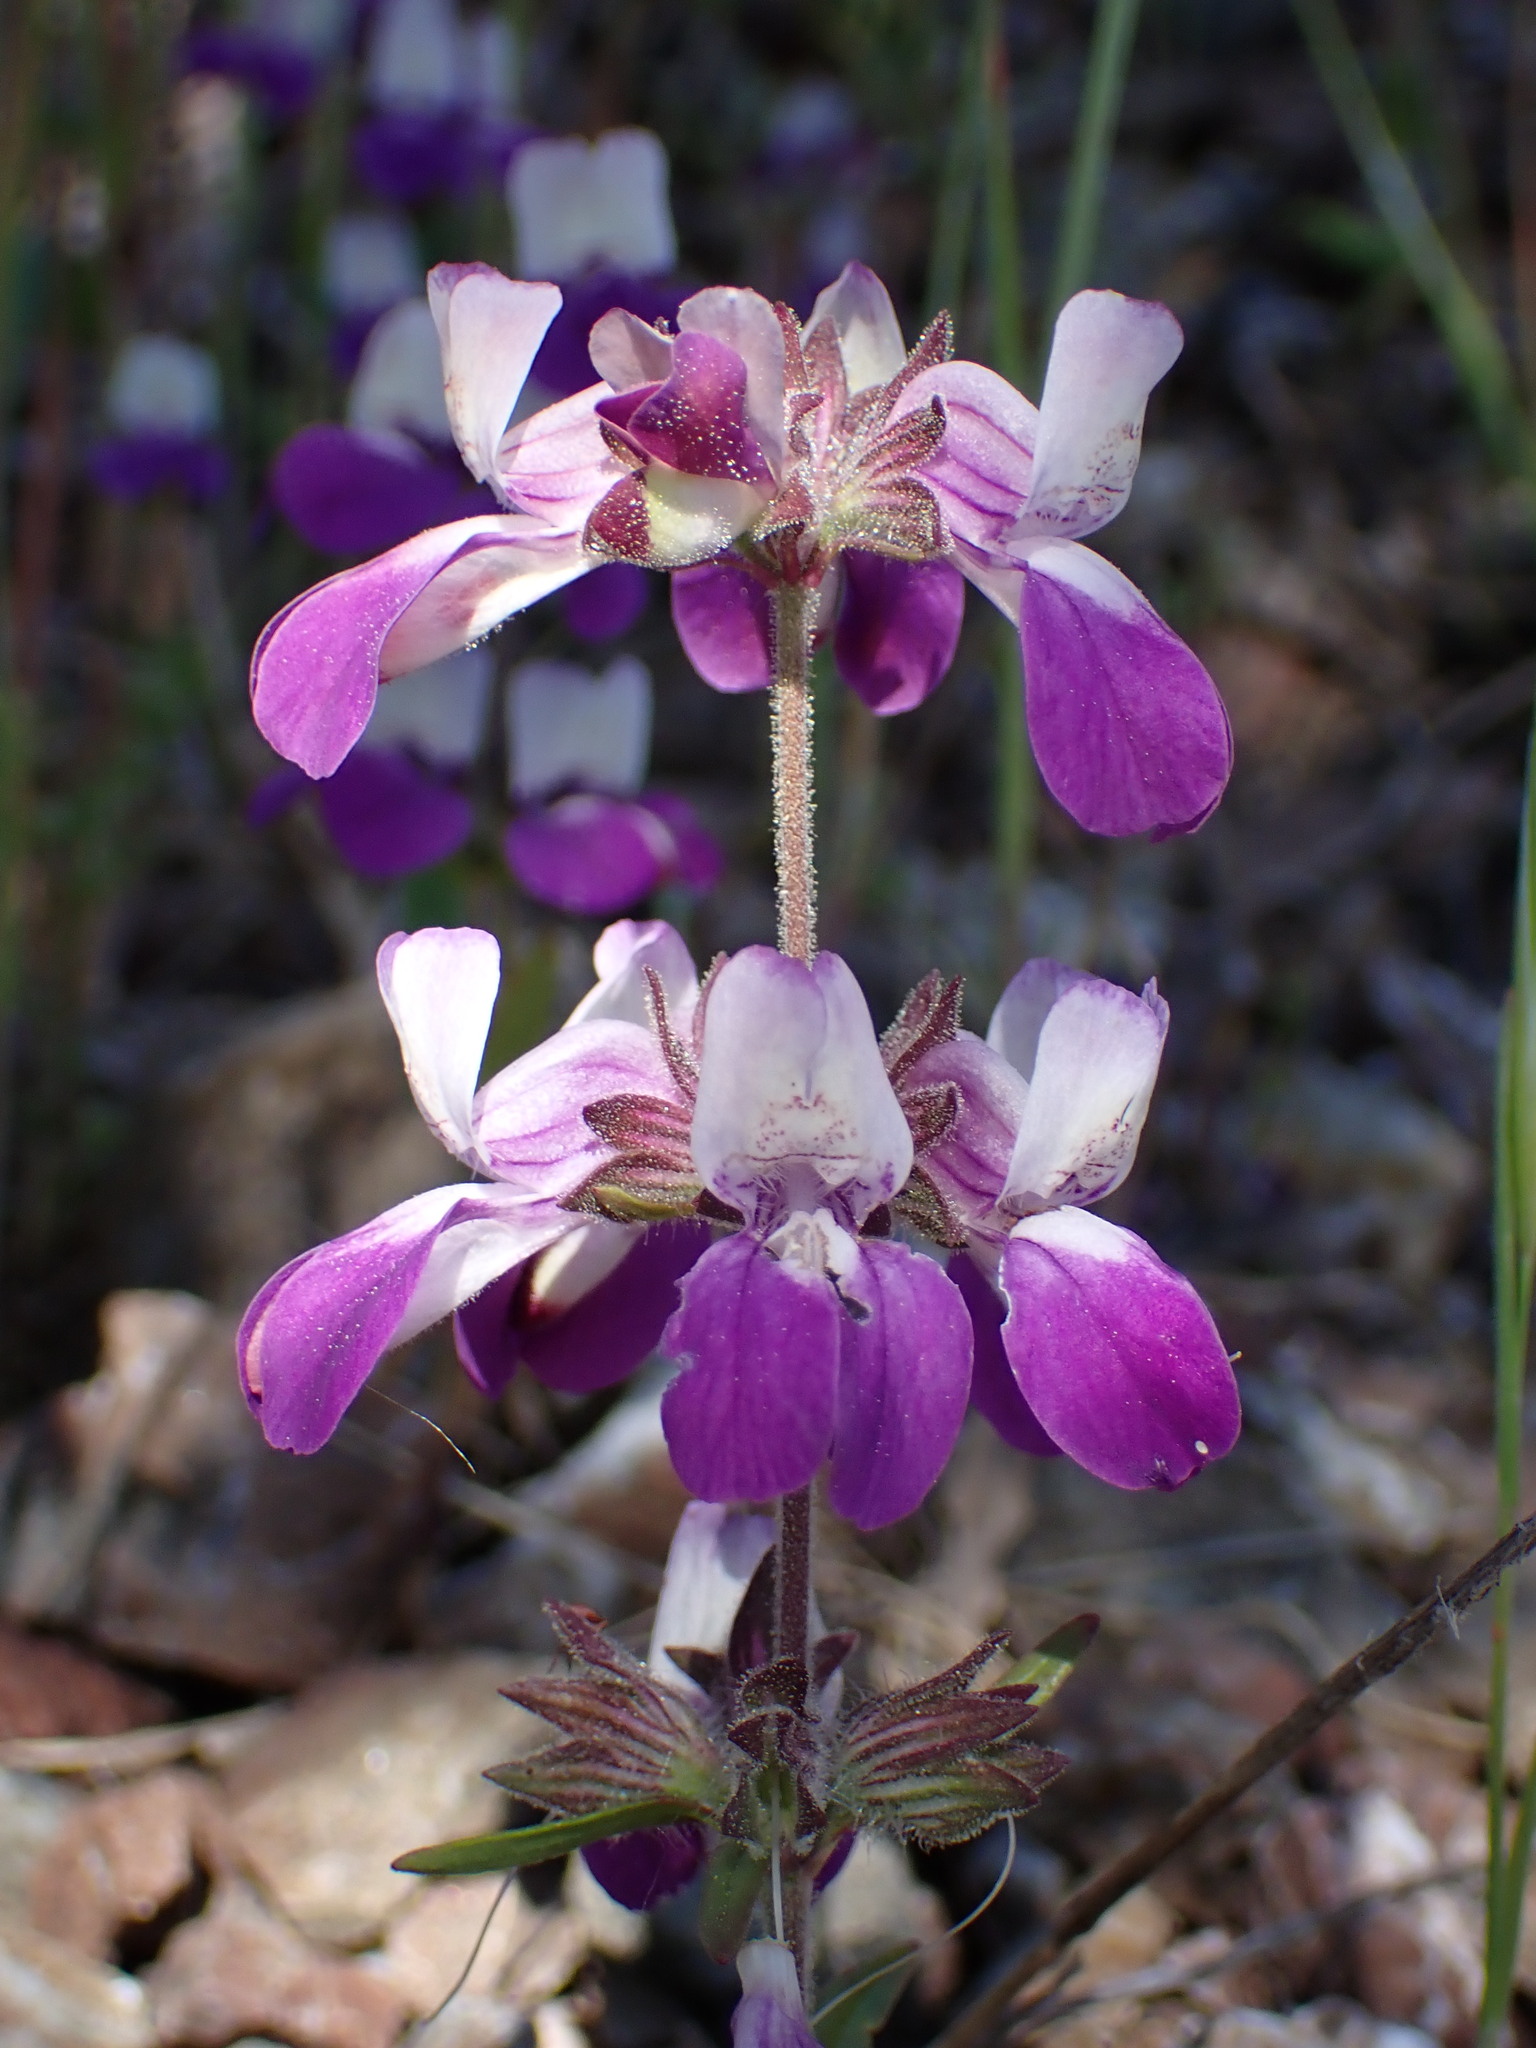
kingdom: Plantae
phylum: Tracheophyta
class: Magnoliopsida
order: Lamiales
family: Plantaginaceae
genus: Collinsia
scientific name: Collinsia heterophylla
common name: Chinese-houses
